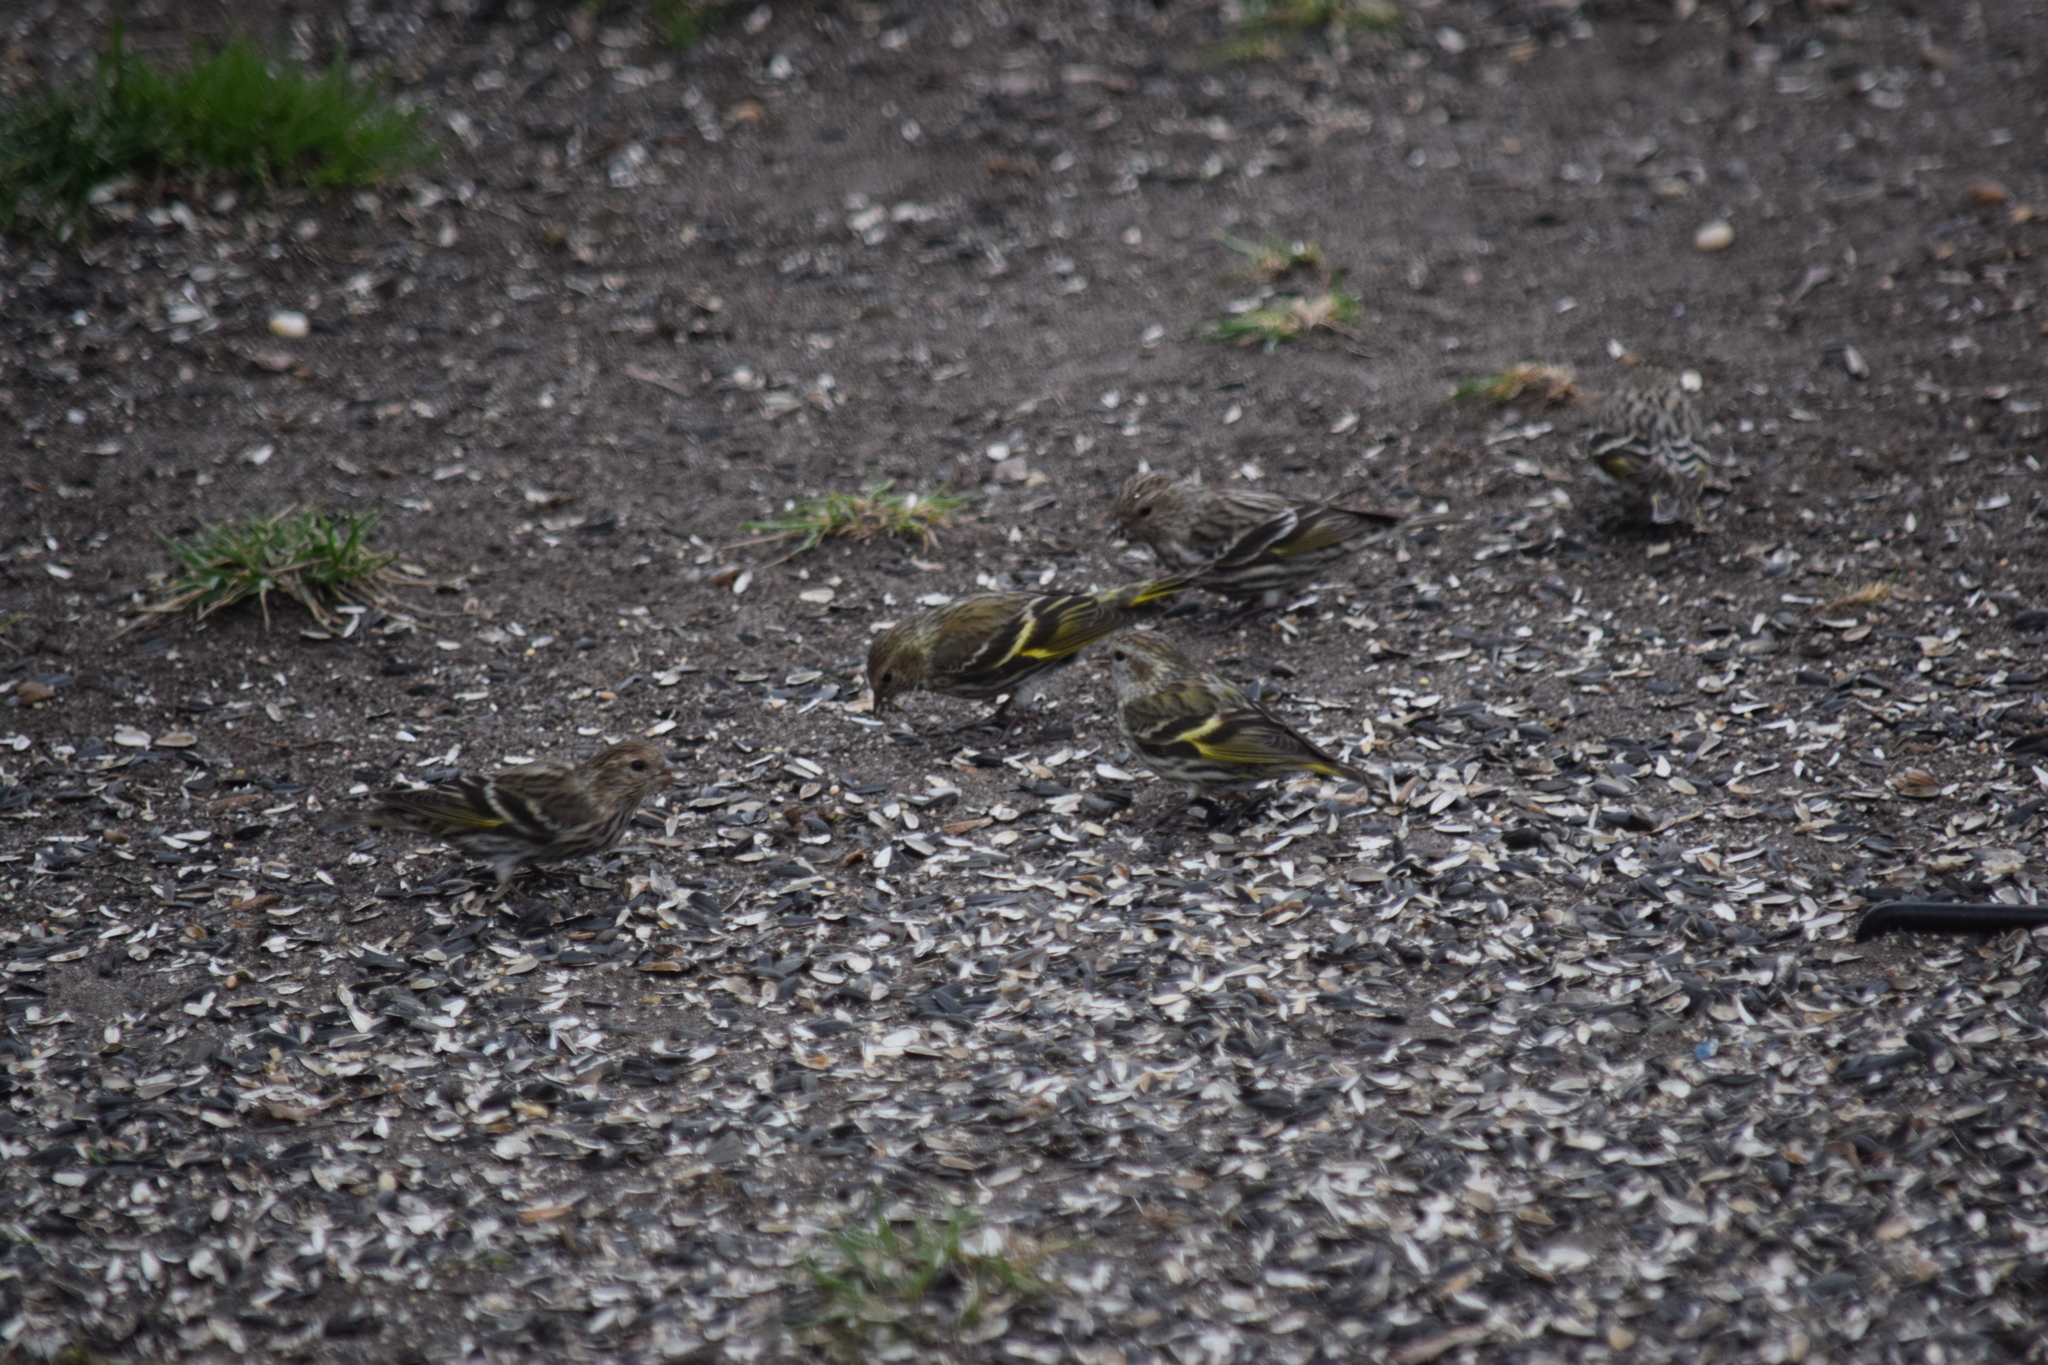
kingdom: Animalia
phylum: Chordata
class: Aves
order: Passeriformes
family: Fringillidae
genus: Spinus
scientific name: Spinus pinus
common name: Pine siskin
